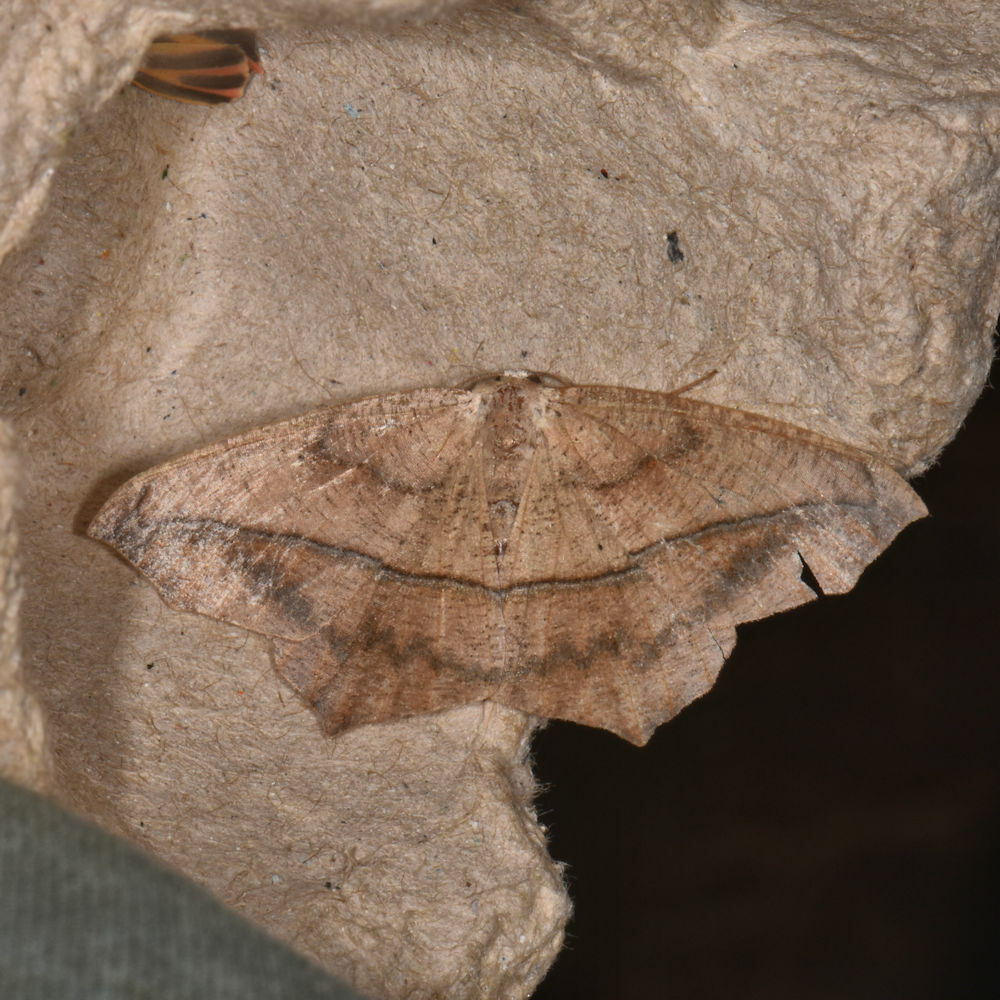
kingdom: Animalia
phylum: Arthropoda
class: Insecta
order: Lepidoptera
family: Geometridae
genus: Prochoerodes
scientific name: Prochoerodes lineola
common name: Large maple spanworm
